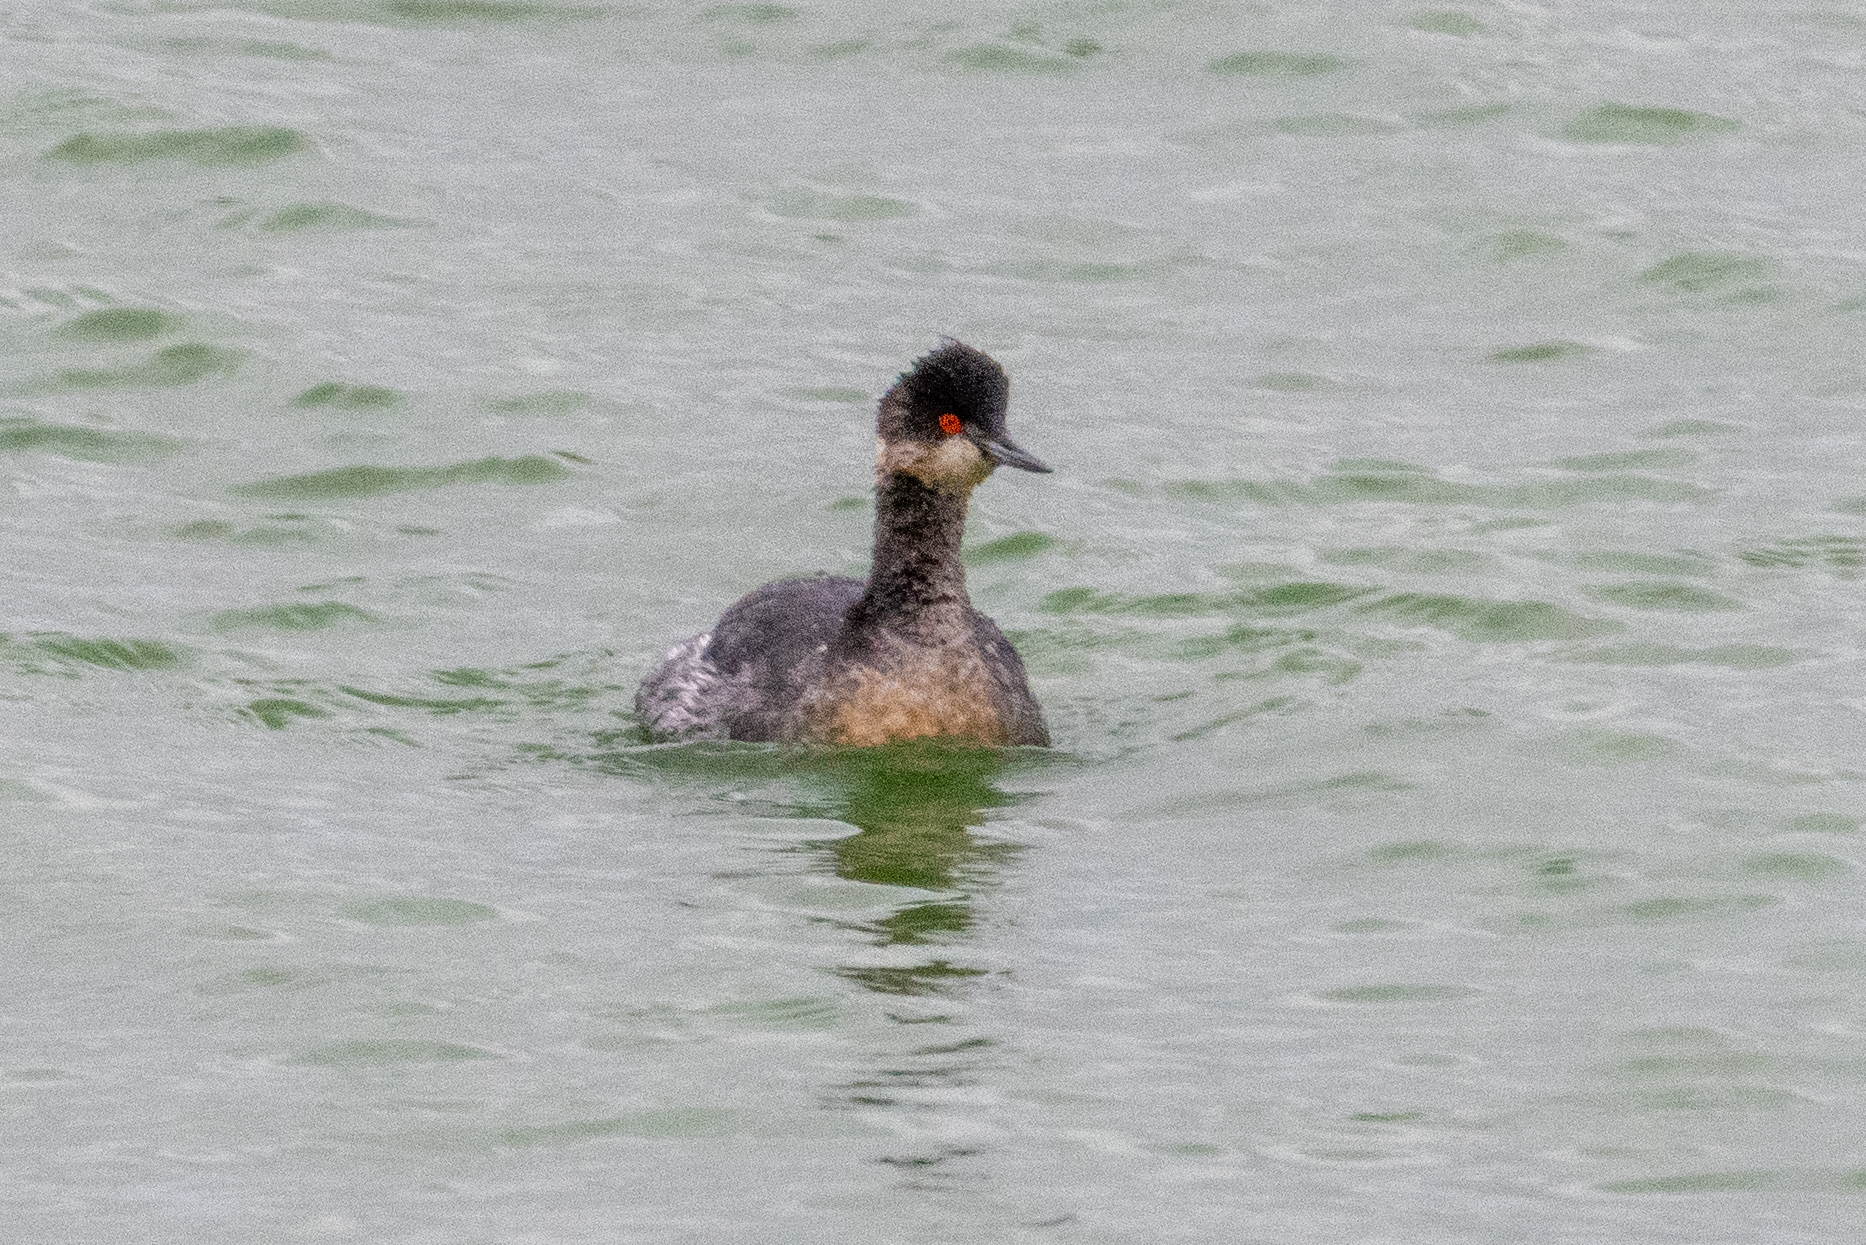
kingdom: Animalia
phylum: Chordata
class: Aves
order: Podicipediformes
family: Podicipedidae
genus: Podiceps
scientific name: Podiceps nigricollis
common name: Black-necked grebe
